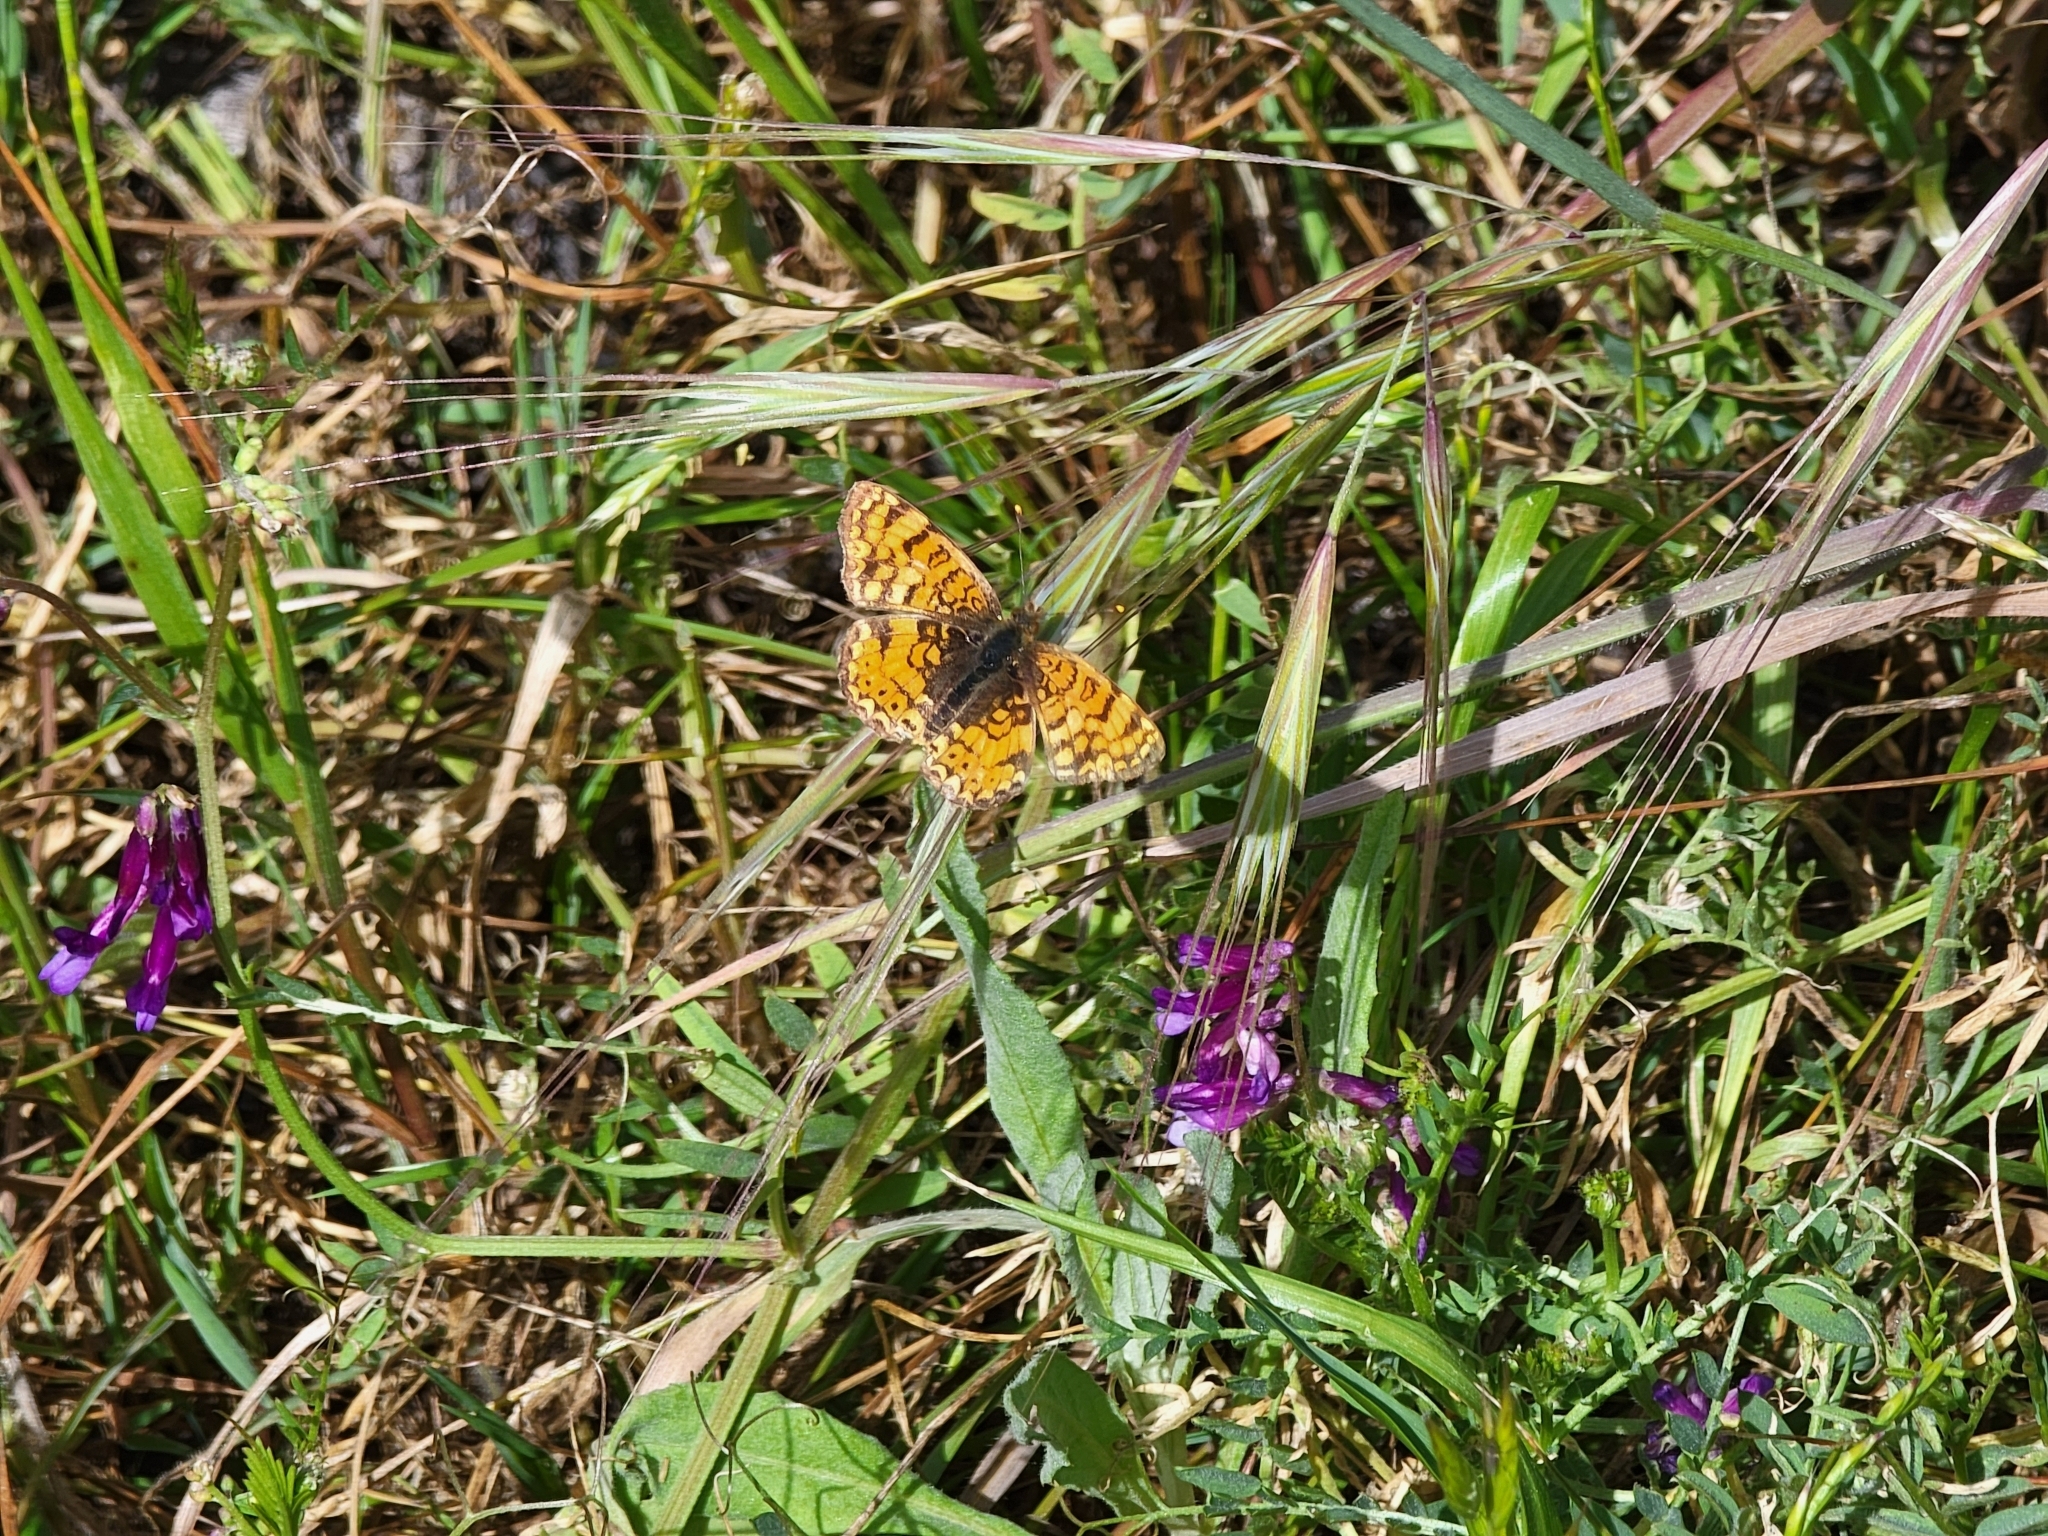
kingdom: Animalia
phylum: Arthropoda
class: Insecta
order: Lepidoptera
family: Nymphalidae
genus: Eresia
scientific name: Eresia aveyrona
